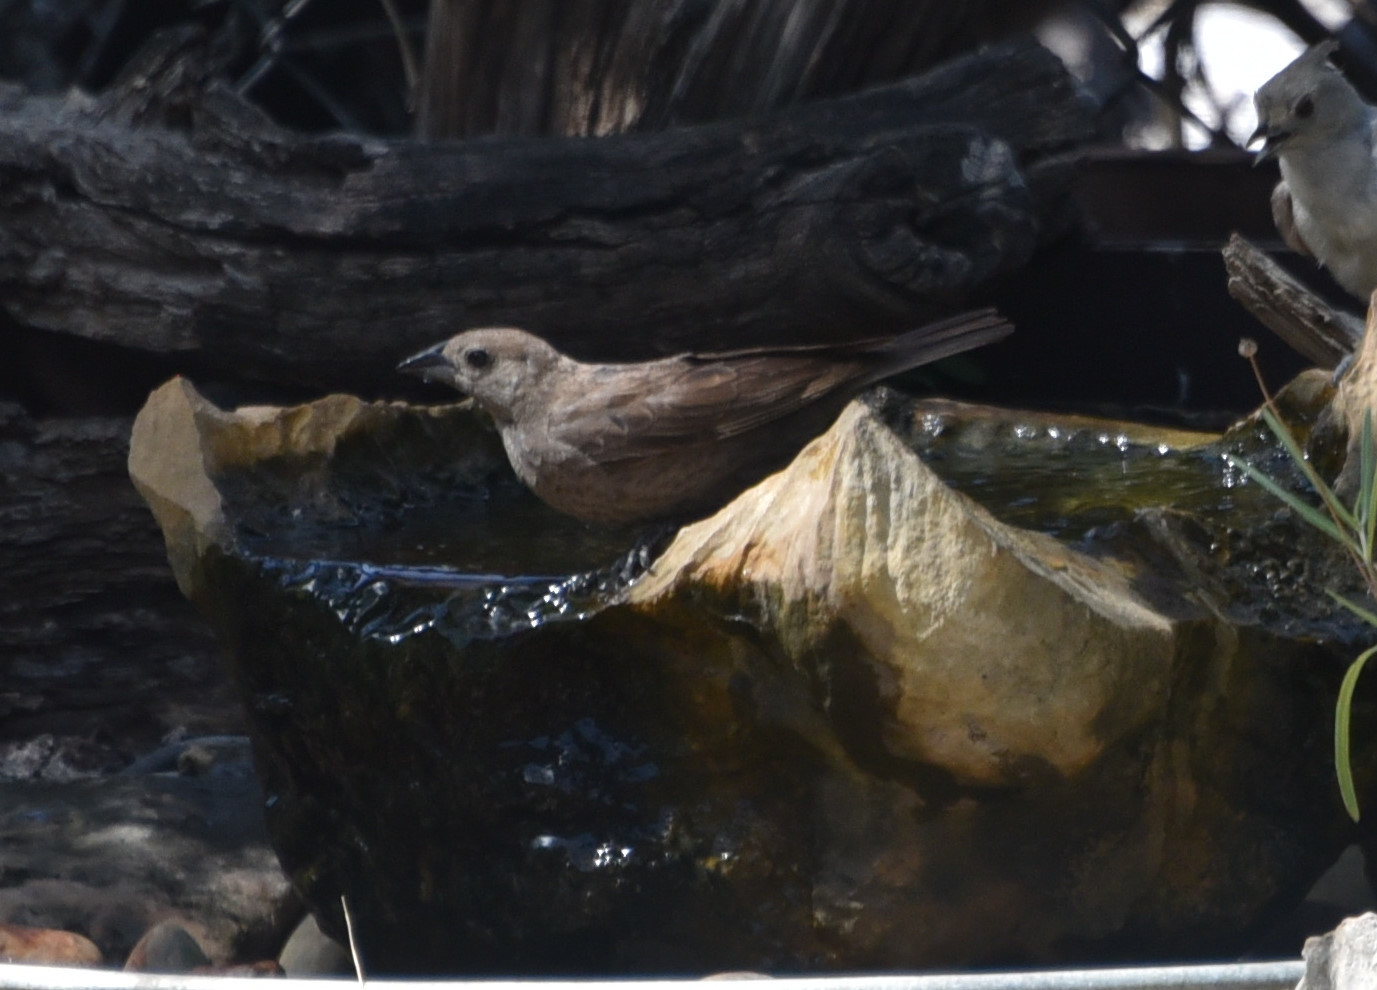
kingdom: Animalia
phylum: Chordata
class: Aves
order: Passeriformes
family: Icteridae
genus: Molothrus
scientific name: Molothrus ater
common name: Brown-headed cowbird
